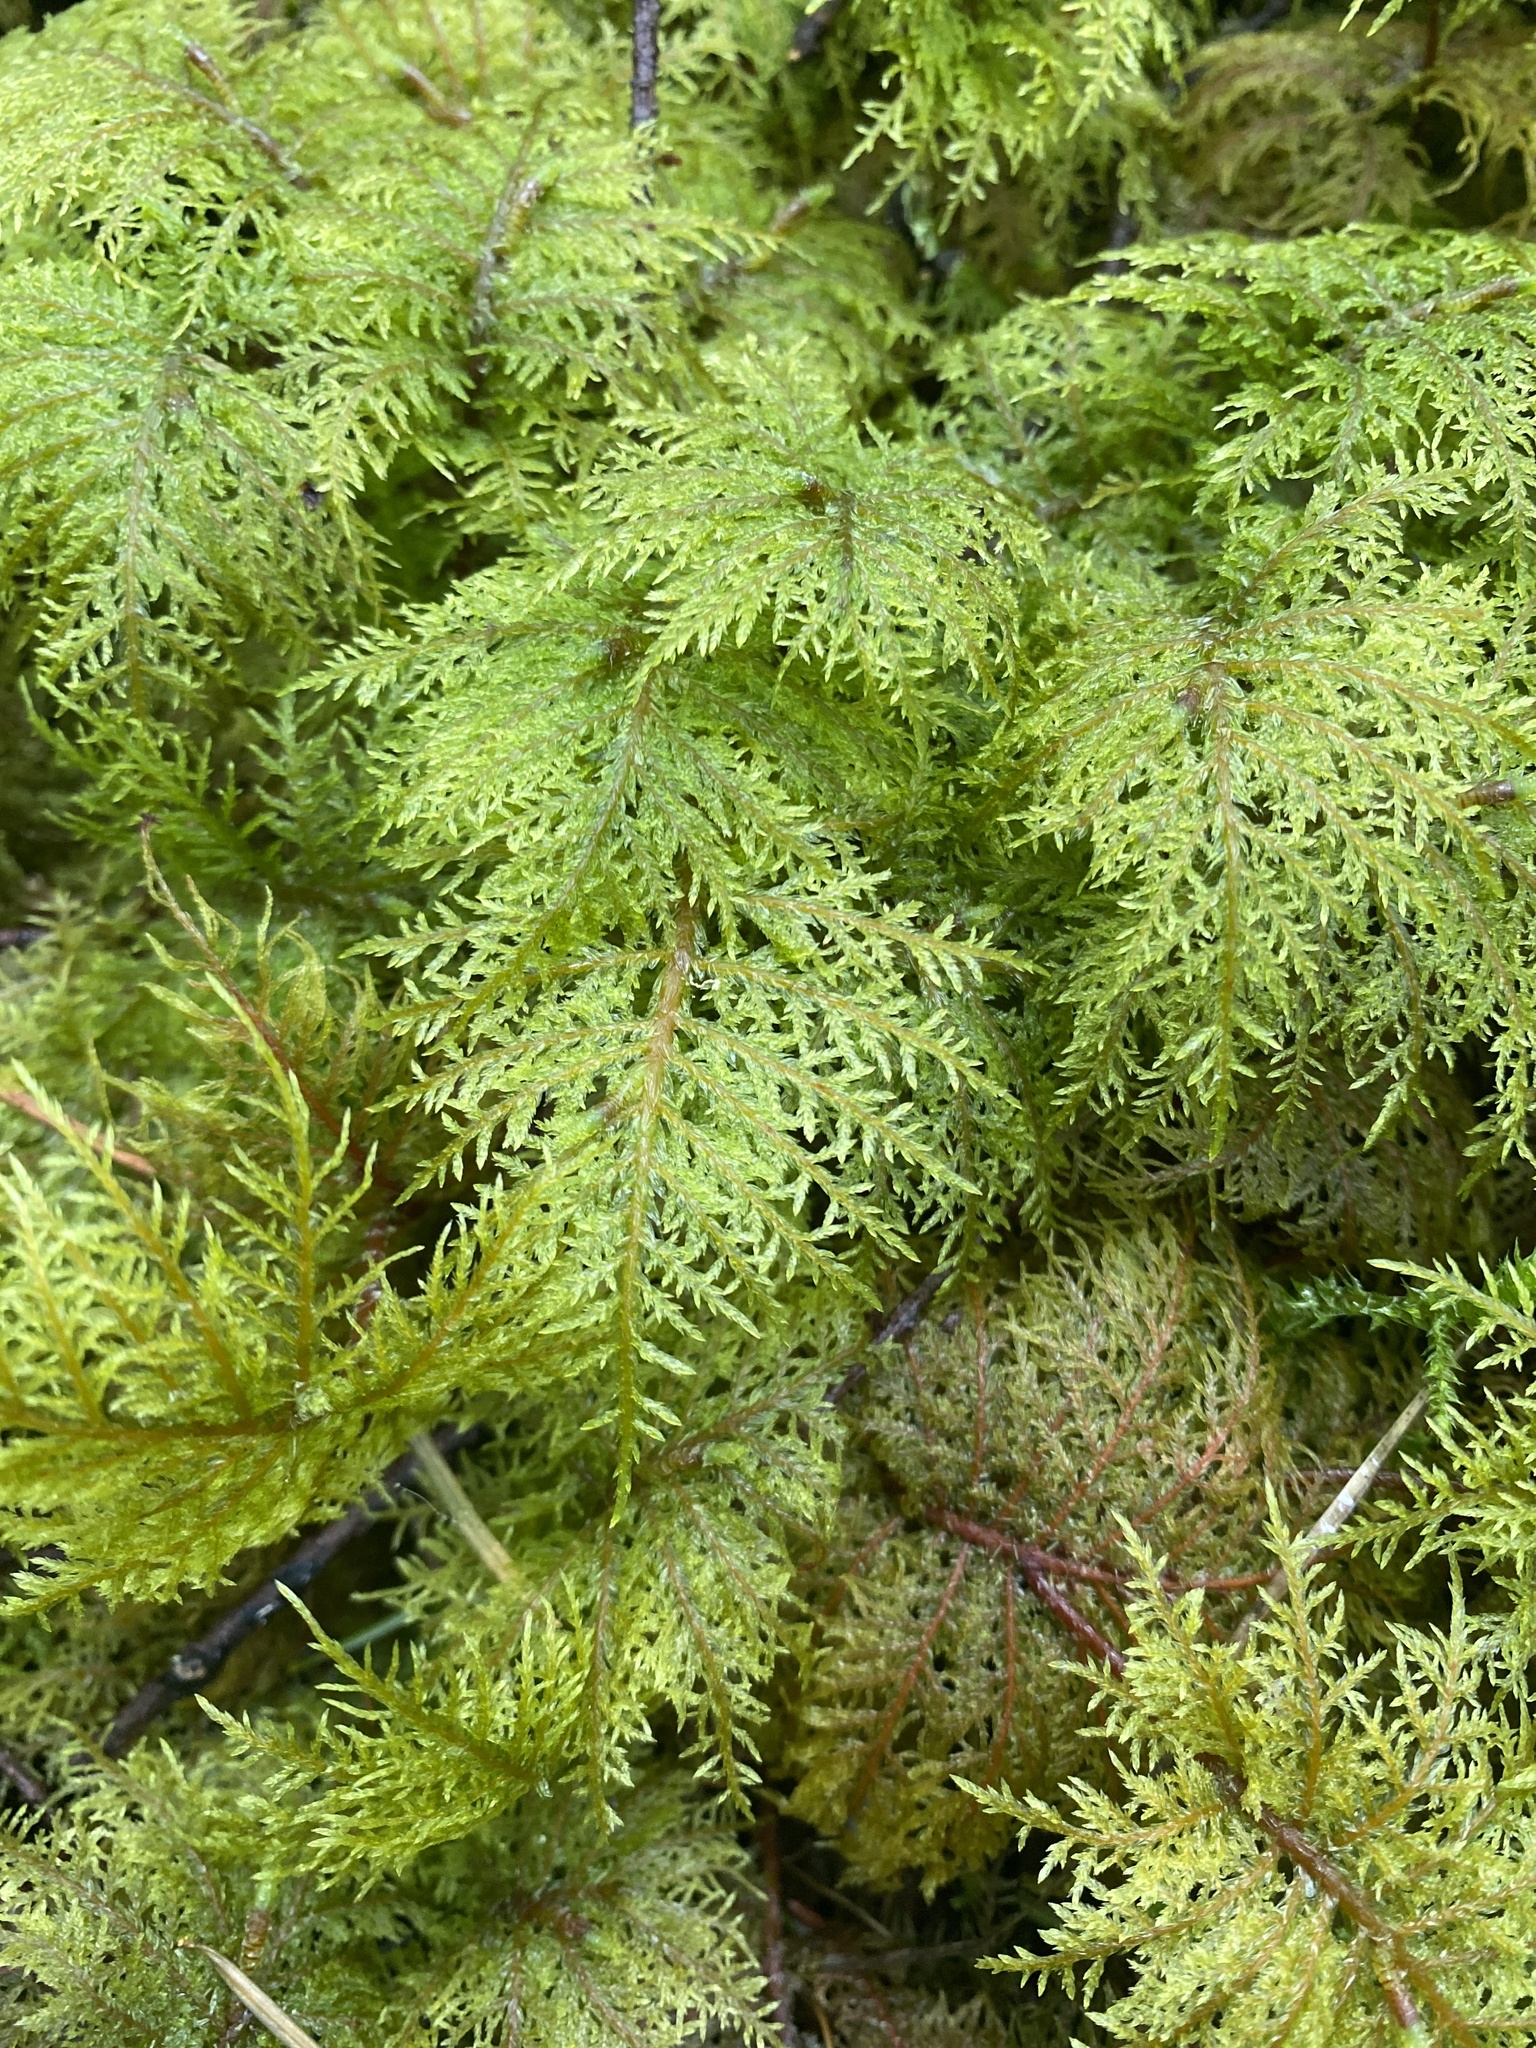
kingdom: Plantae
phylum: Bryophyta
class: Bryopsida
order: Hypnales
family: Hylocomiaceae
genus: Hylocomium
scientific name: Hylocomium splendens
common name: Stairstep moss
